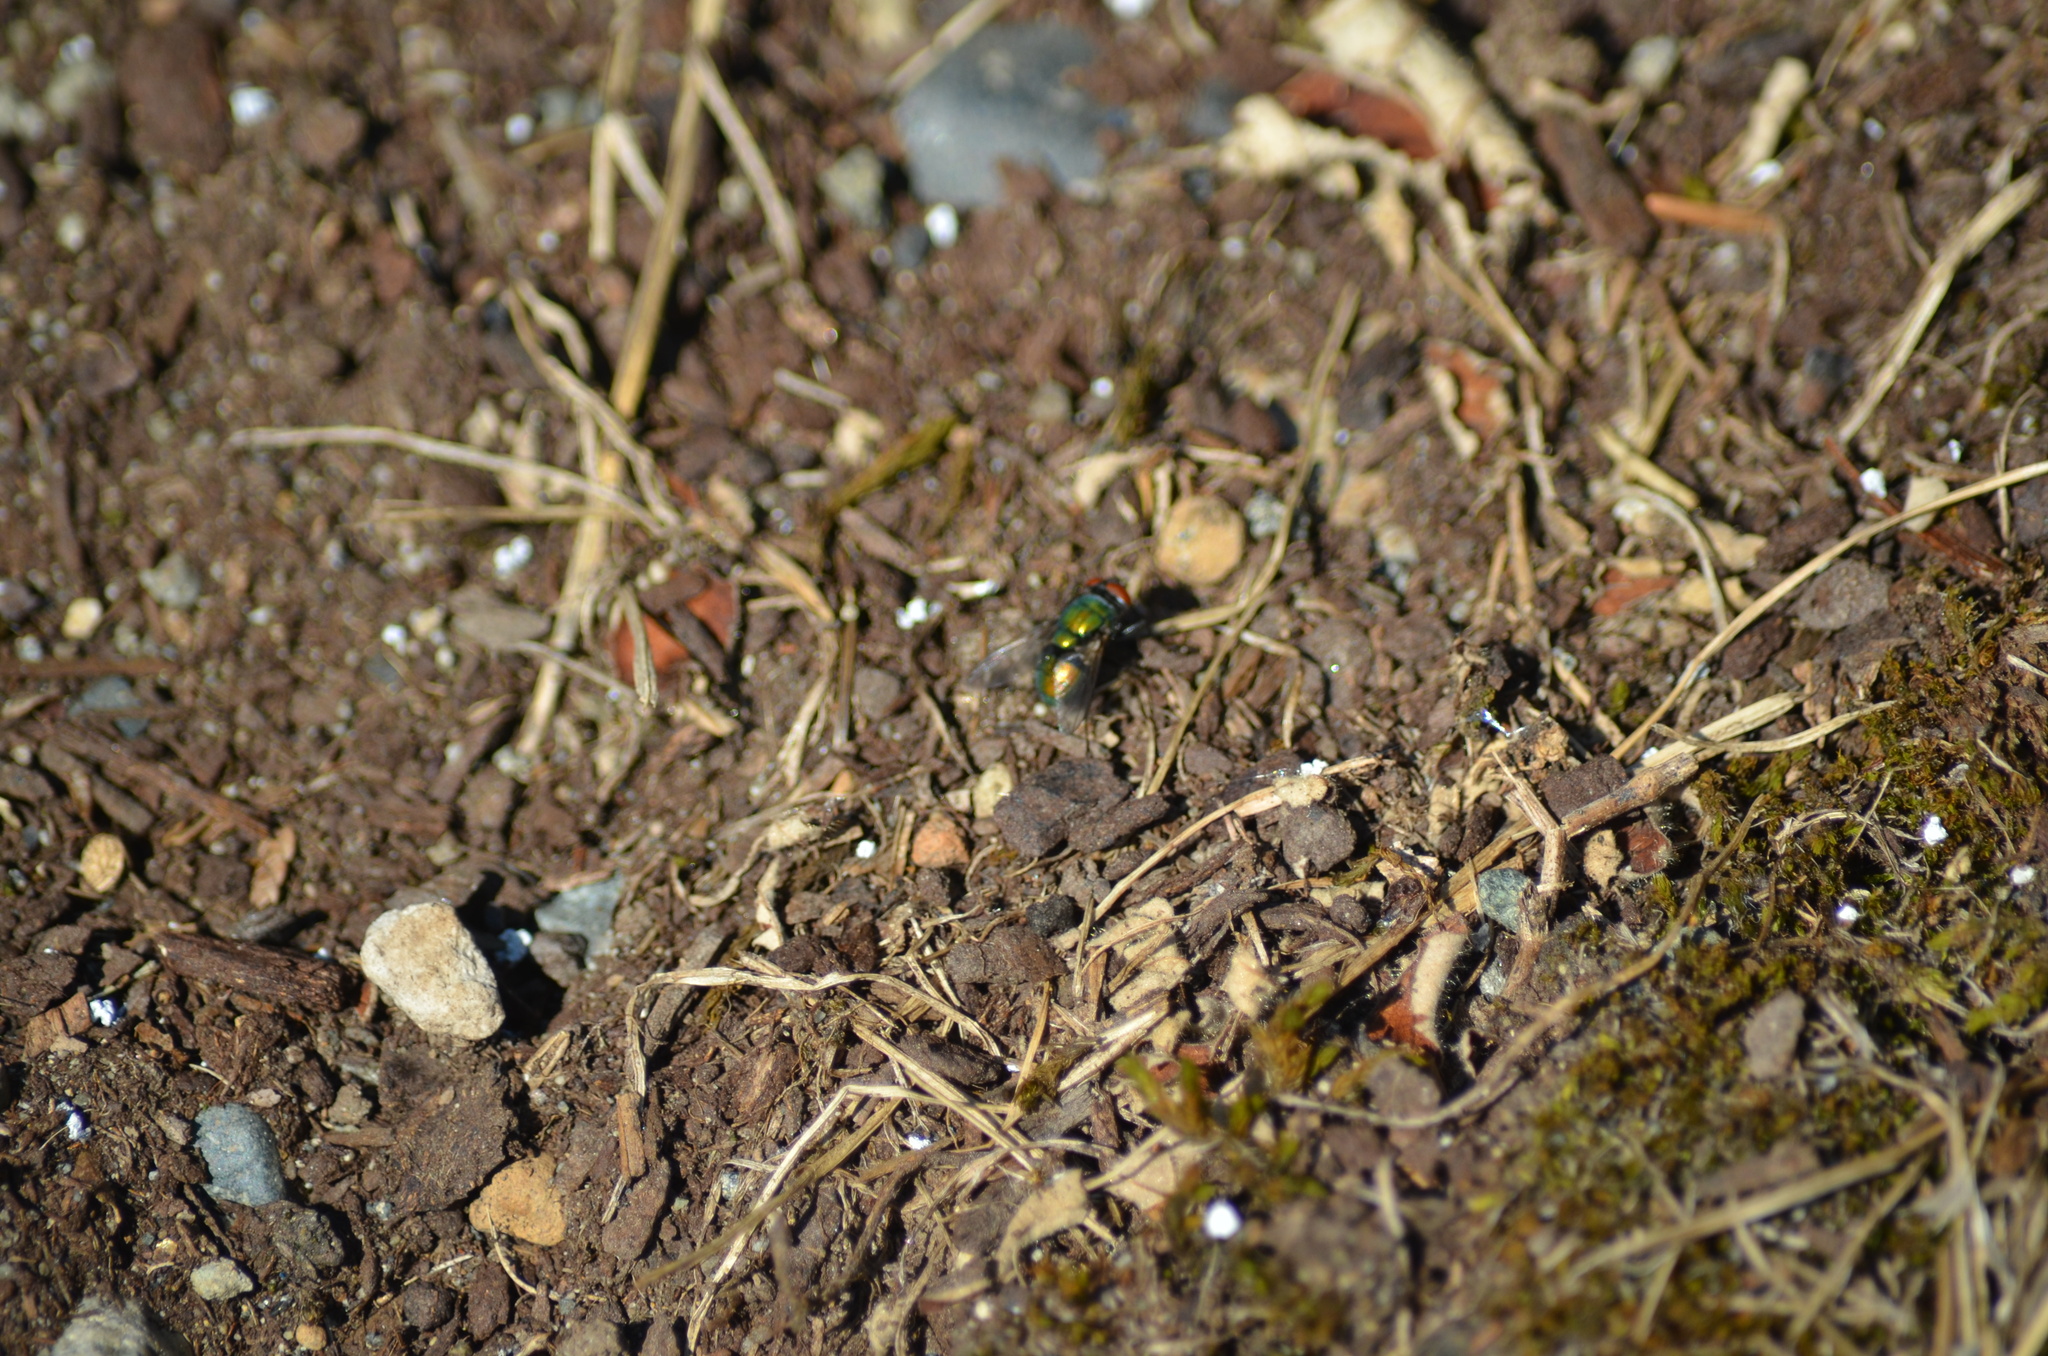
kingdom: Animalia
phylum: Arthropoda
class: Insecta
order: Diptera
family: Calliphoridae
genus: Lucilia
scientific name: Lucilia sericata
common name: Blow fly
